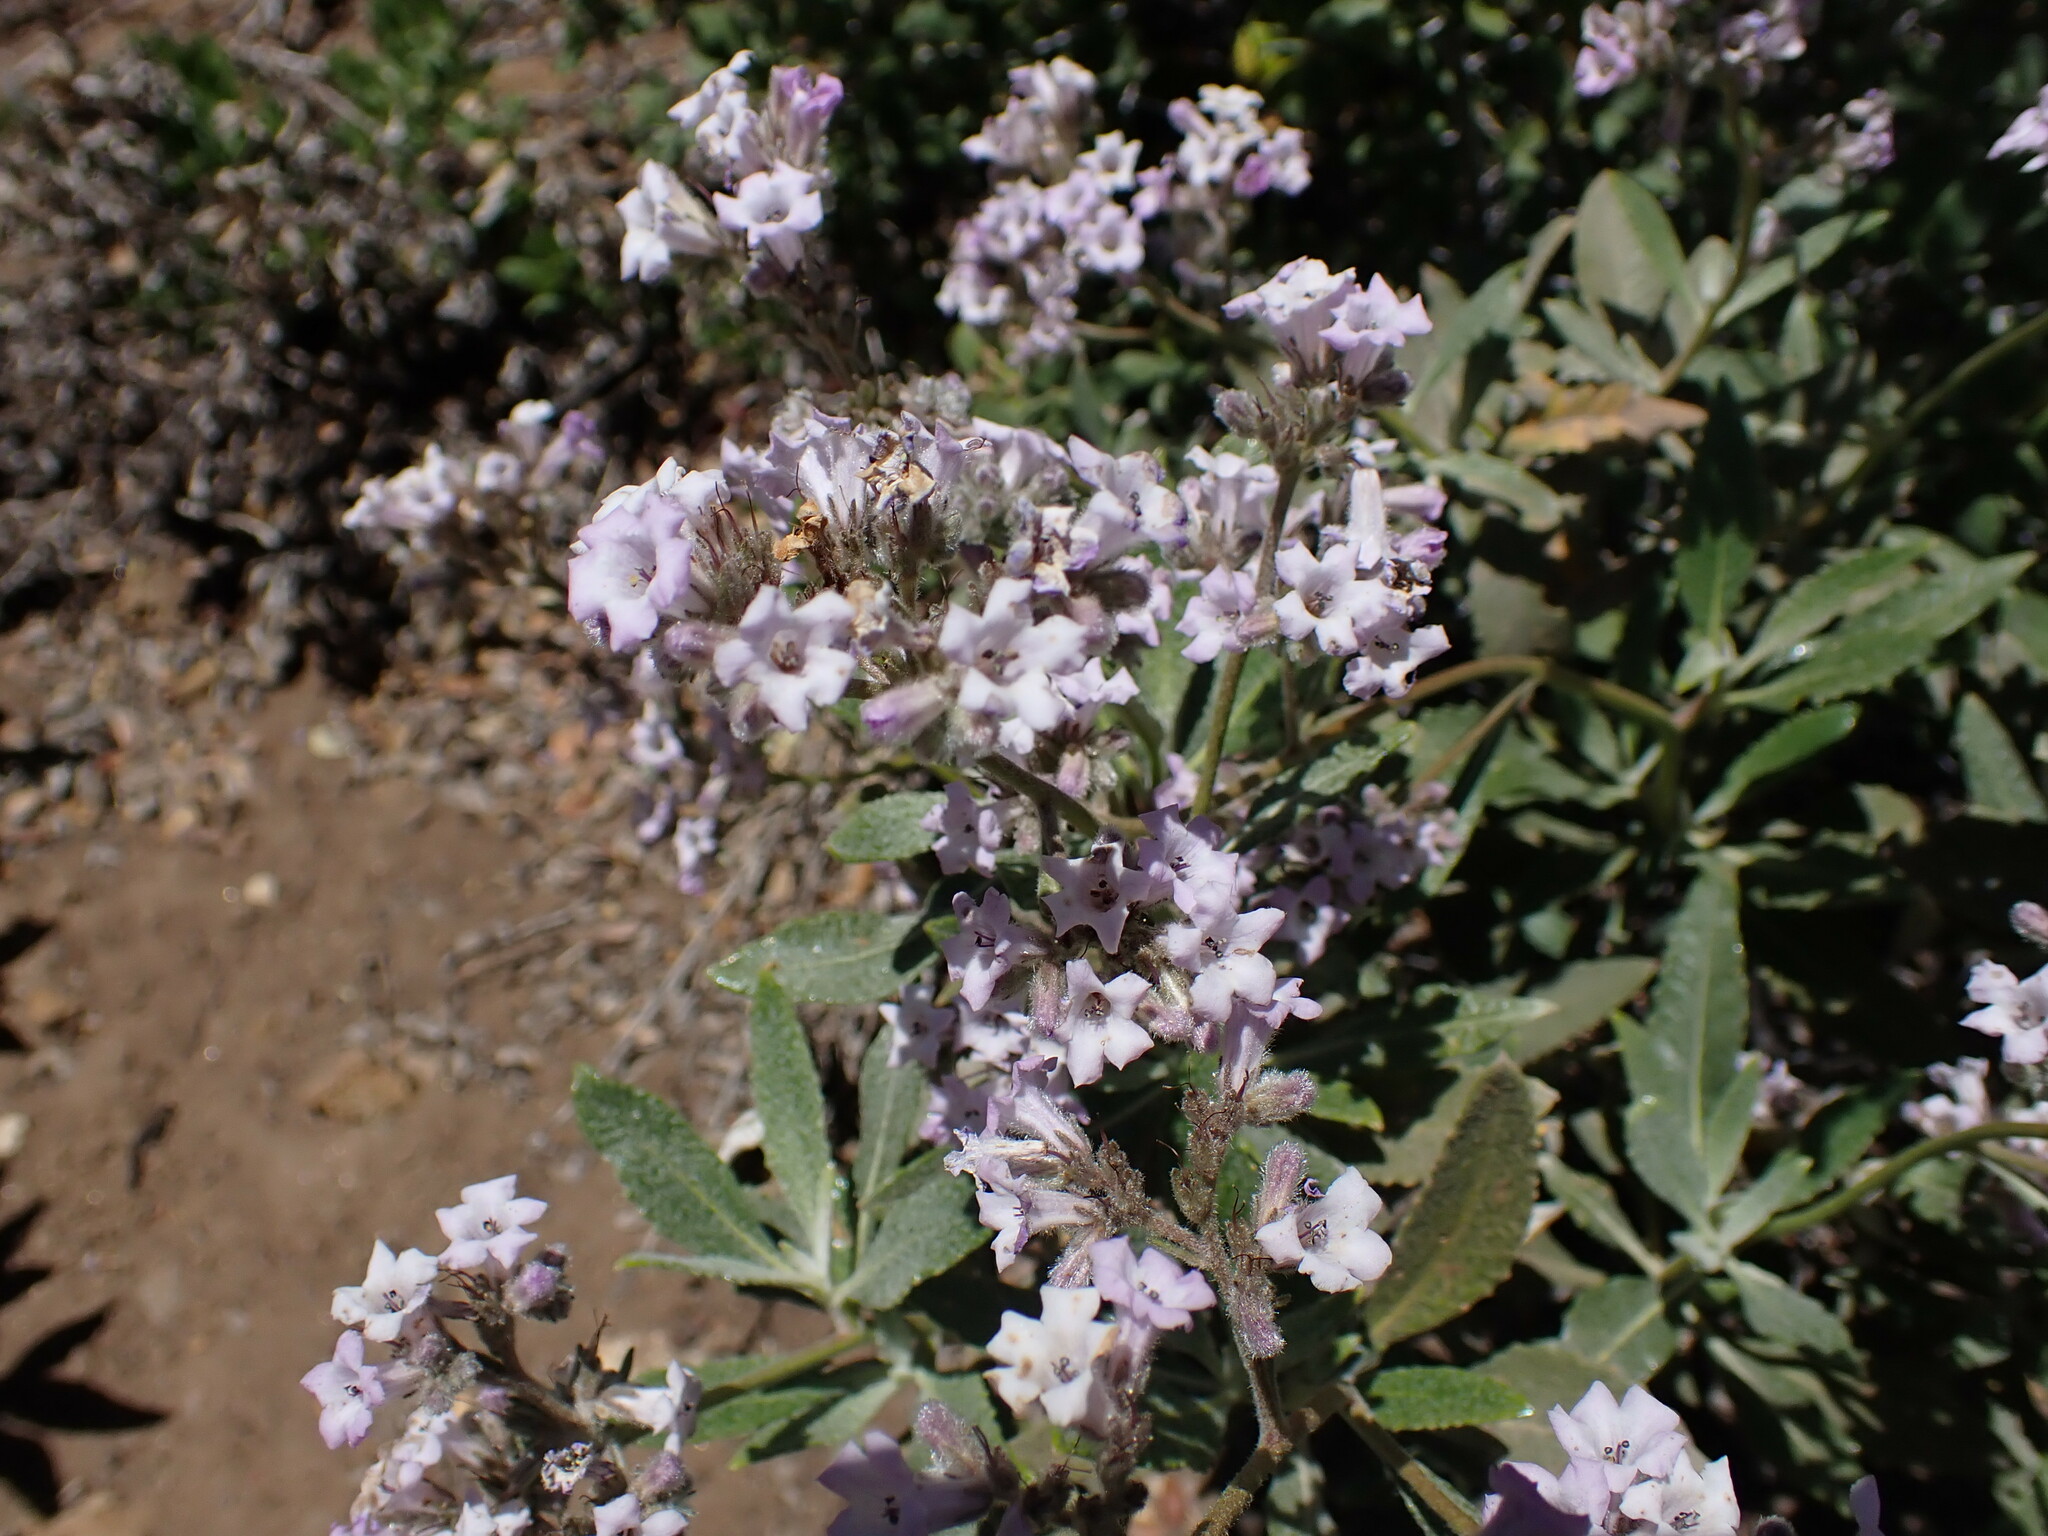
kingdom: Plantae
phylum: Tracheophyta
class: Magnoliopsida
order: Boraginales
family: Namaceae
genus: Eriodictyon
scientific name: Eriodictyon crassifolium
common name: Thick-leaf yerba-santa
